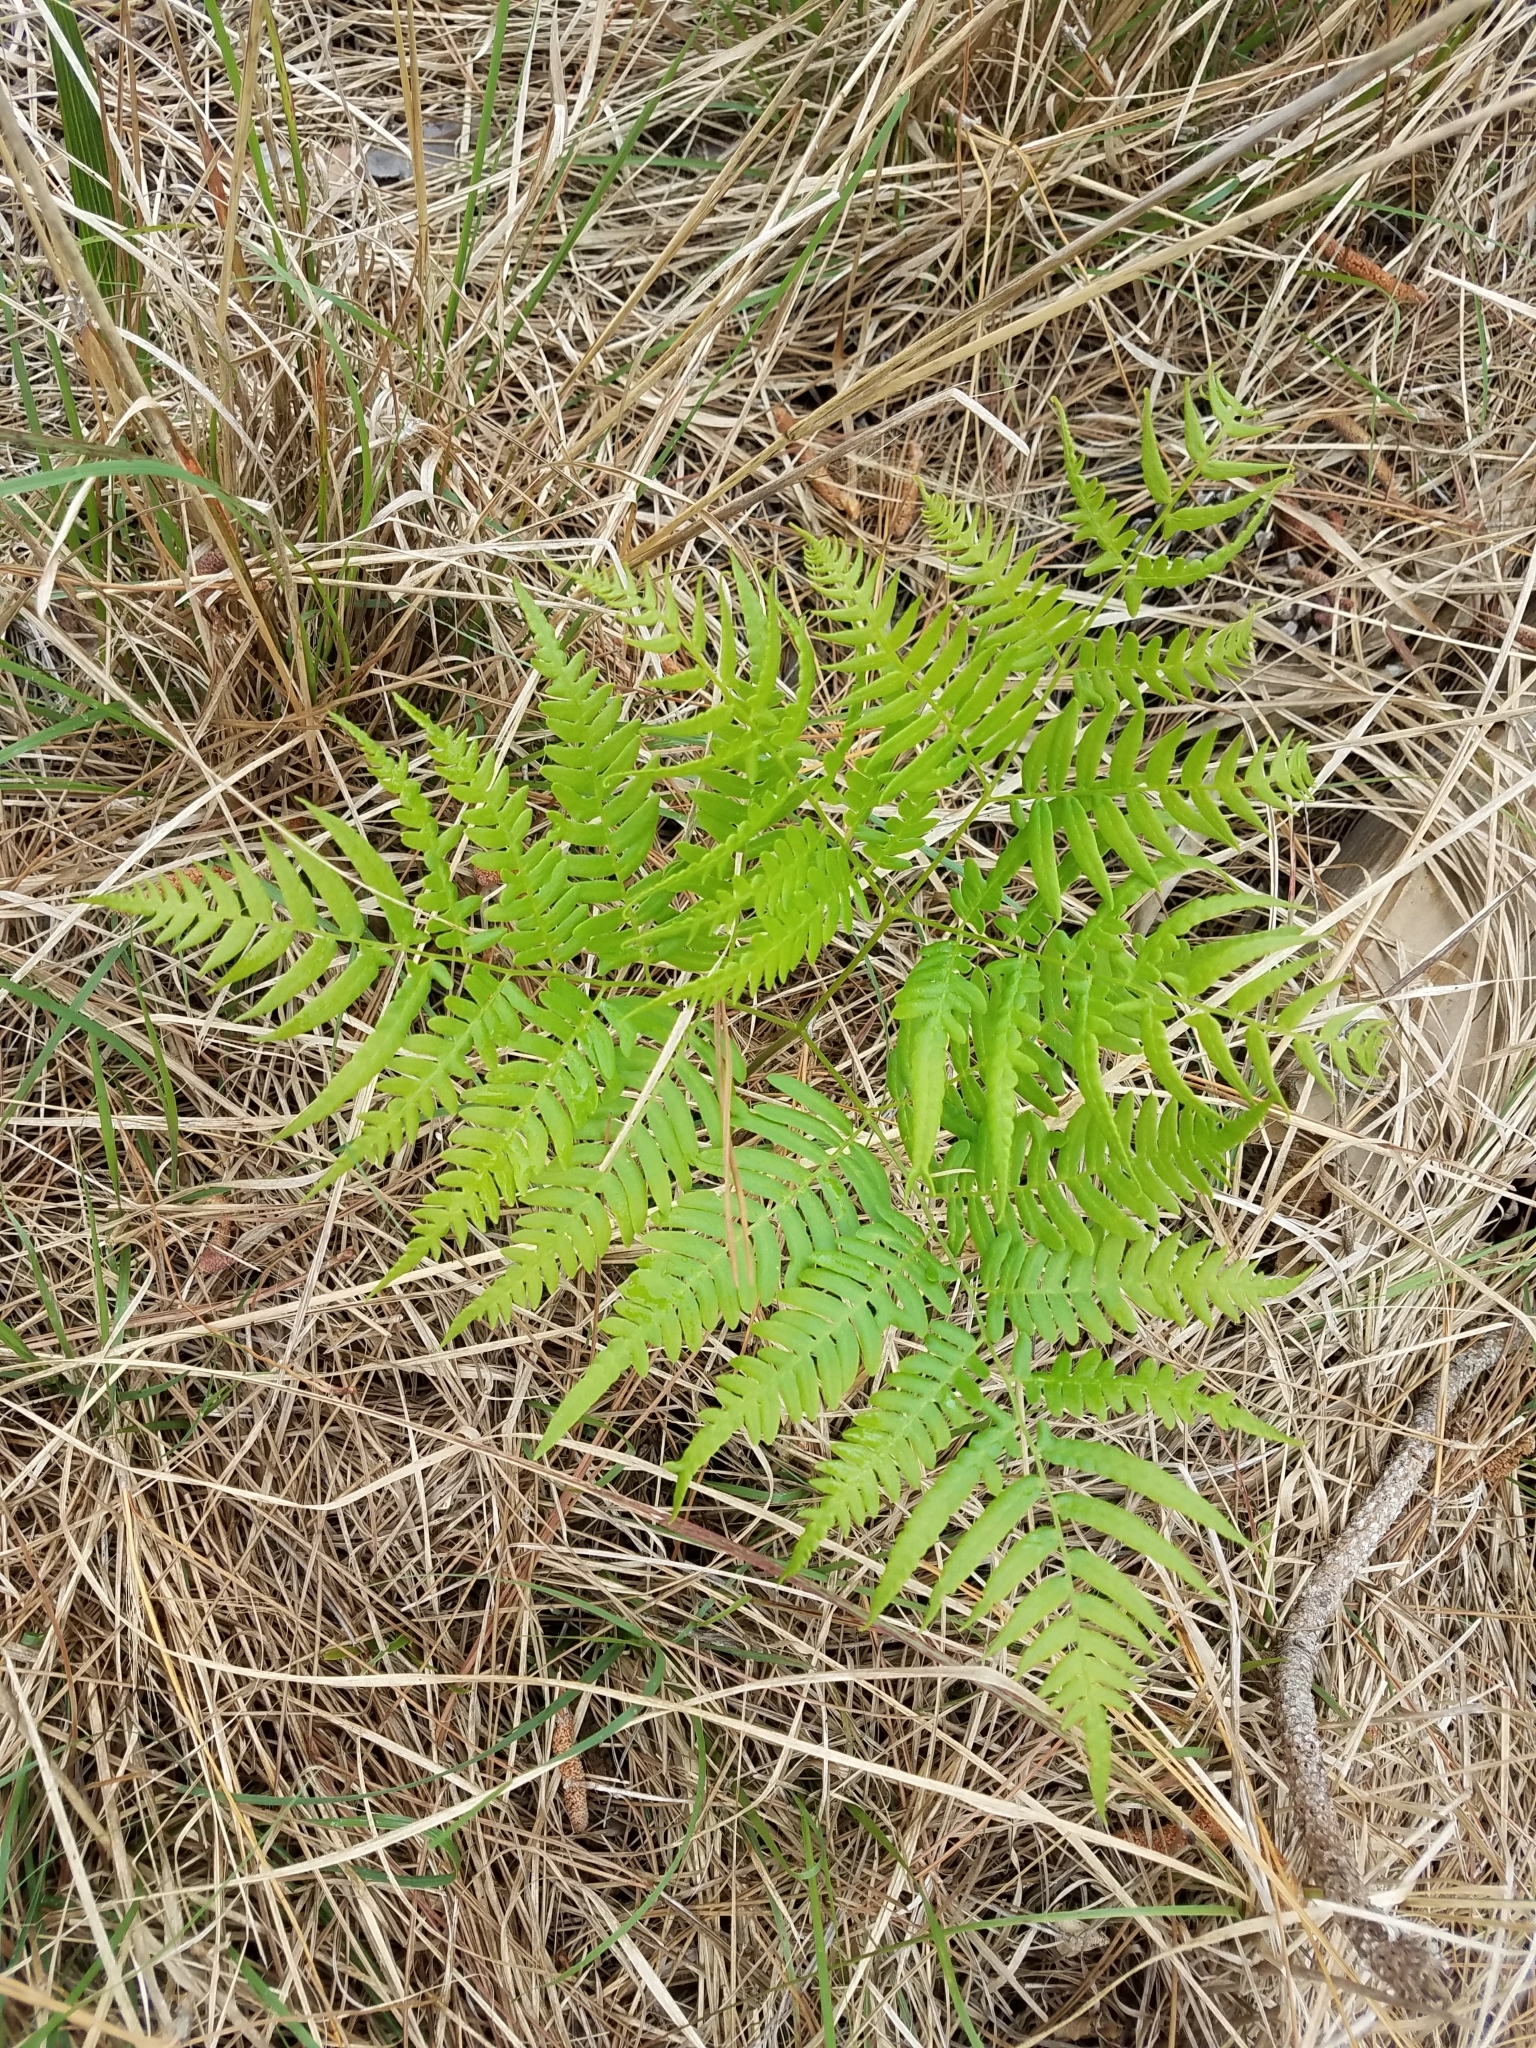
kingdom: Plantae
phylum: Tracheophyta
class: Polypodiopsida
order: Polypodiales
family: Dennstaedtiaceae
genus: Pteridium
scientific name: Pteridium aquilinum
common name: Bracken
